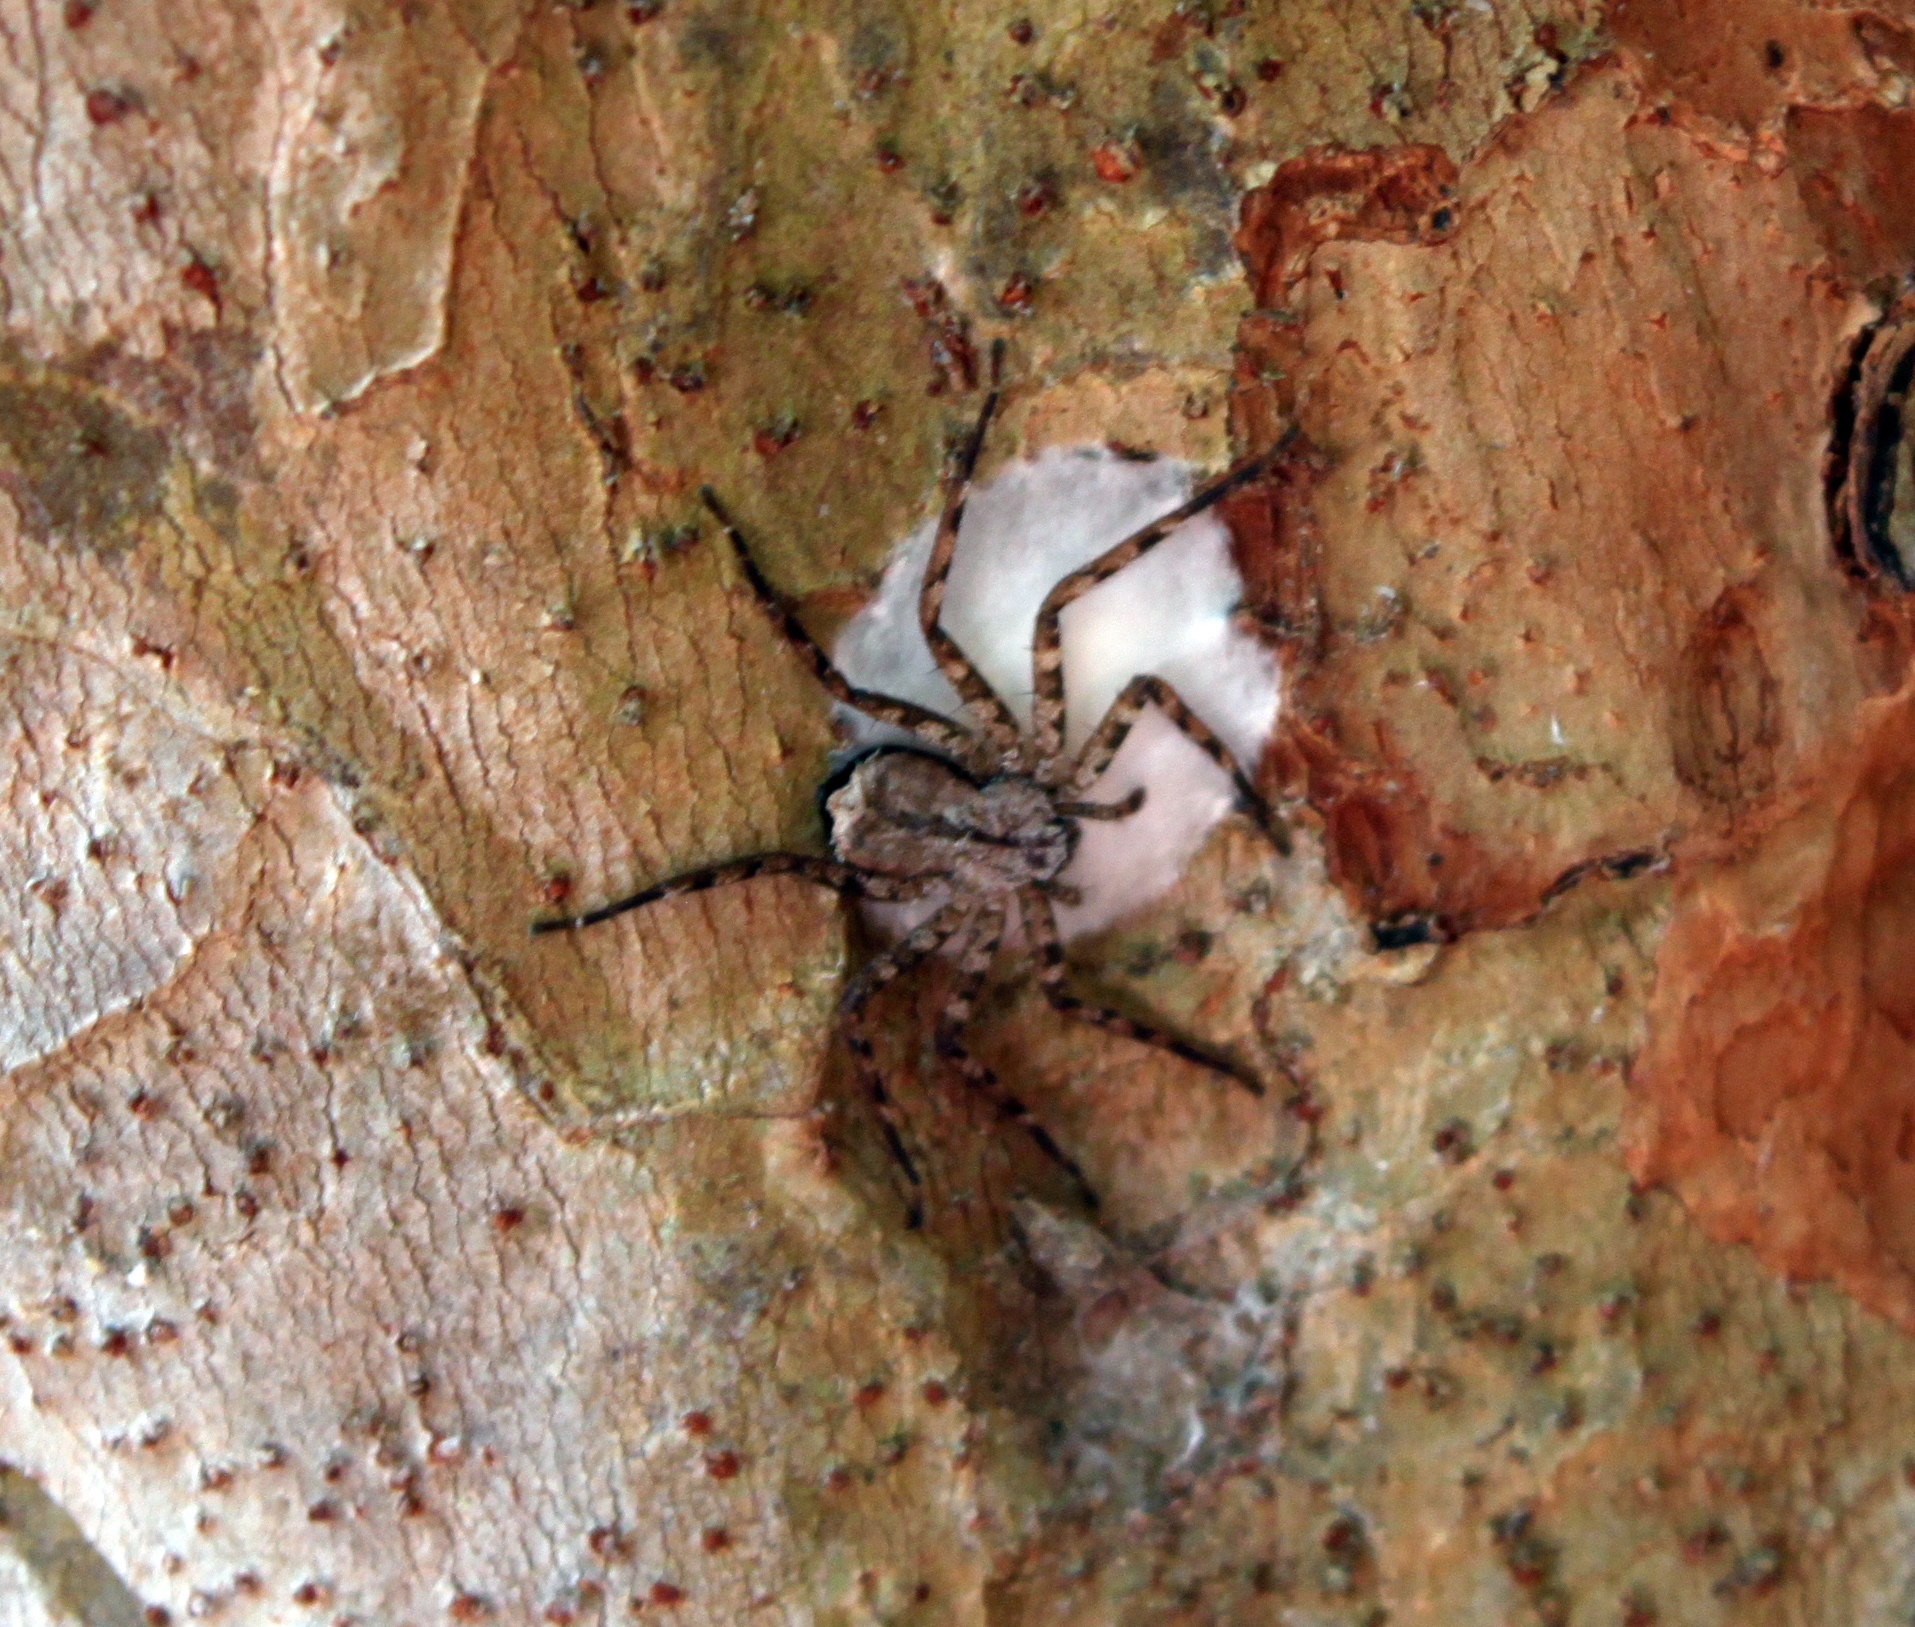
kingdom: Animalia
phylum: Arthropoda
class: Arachnida
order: Araneae
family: Selenopidae
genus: Selenops
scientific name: Selenops submaculosus
